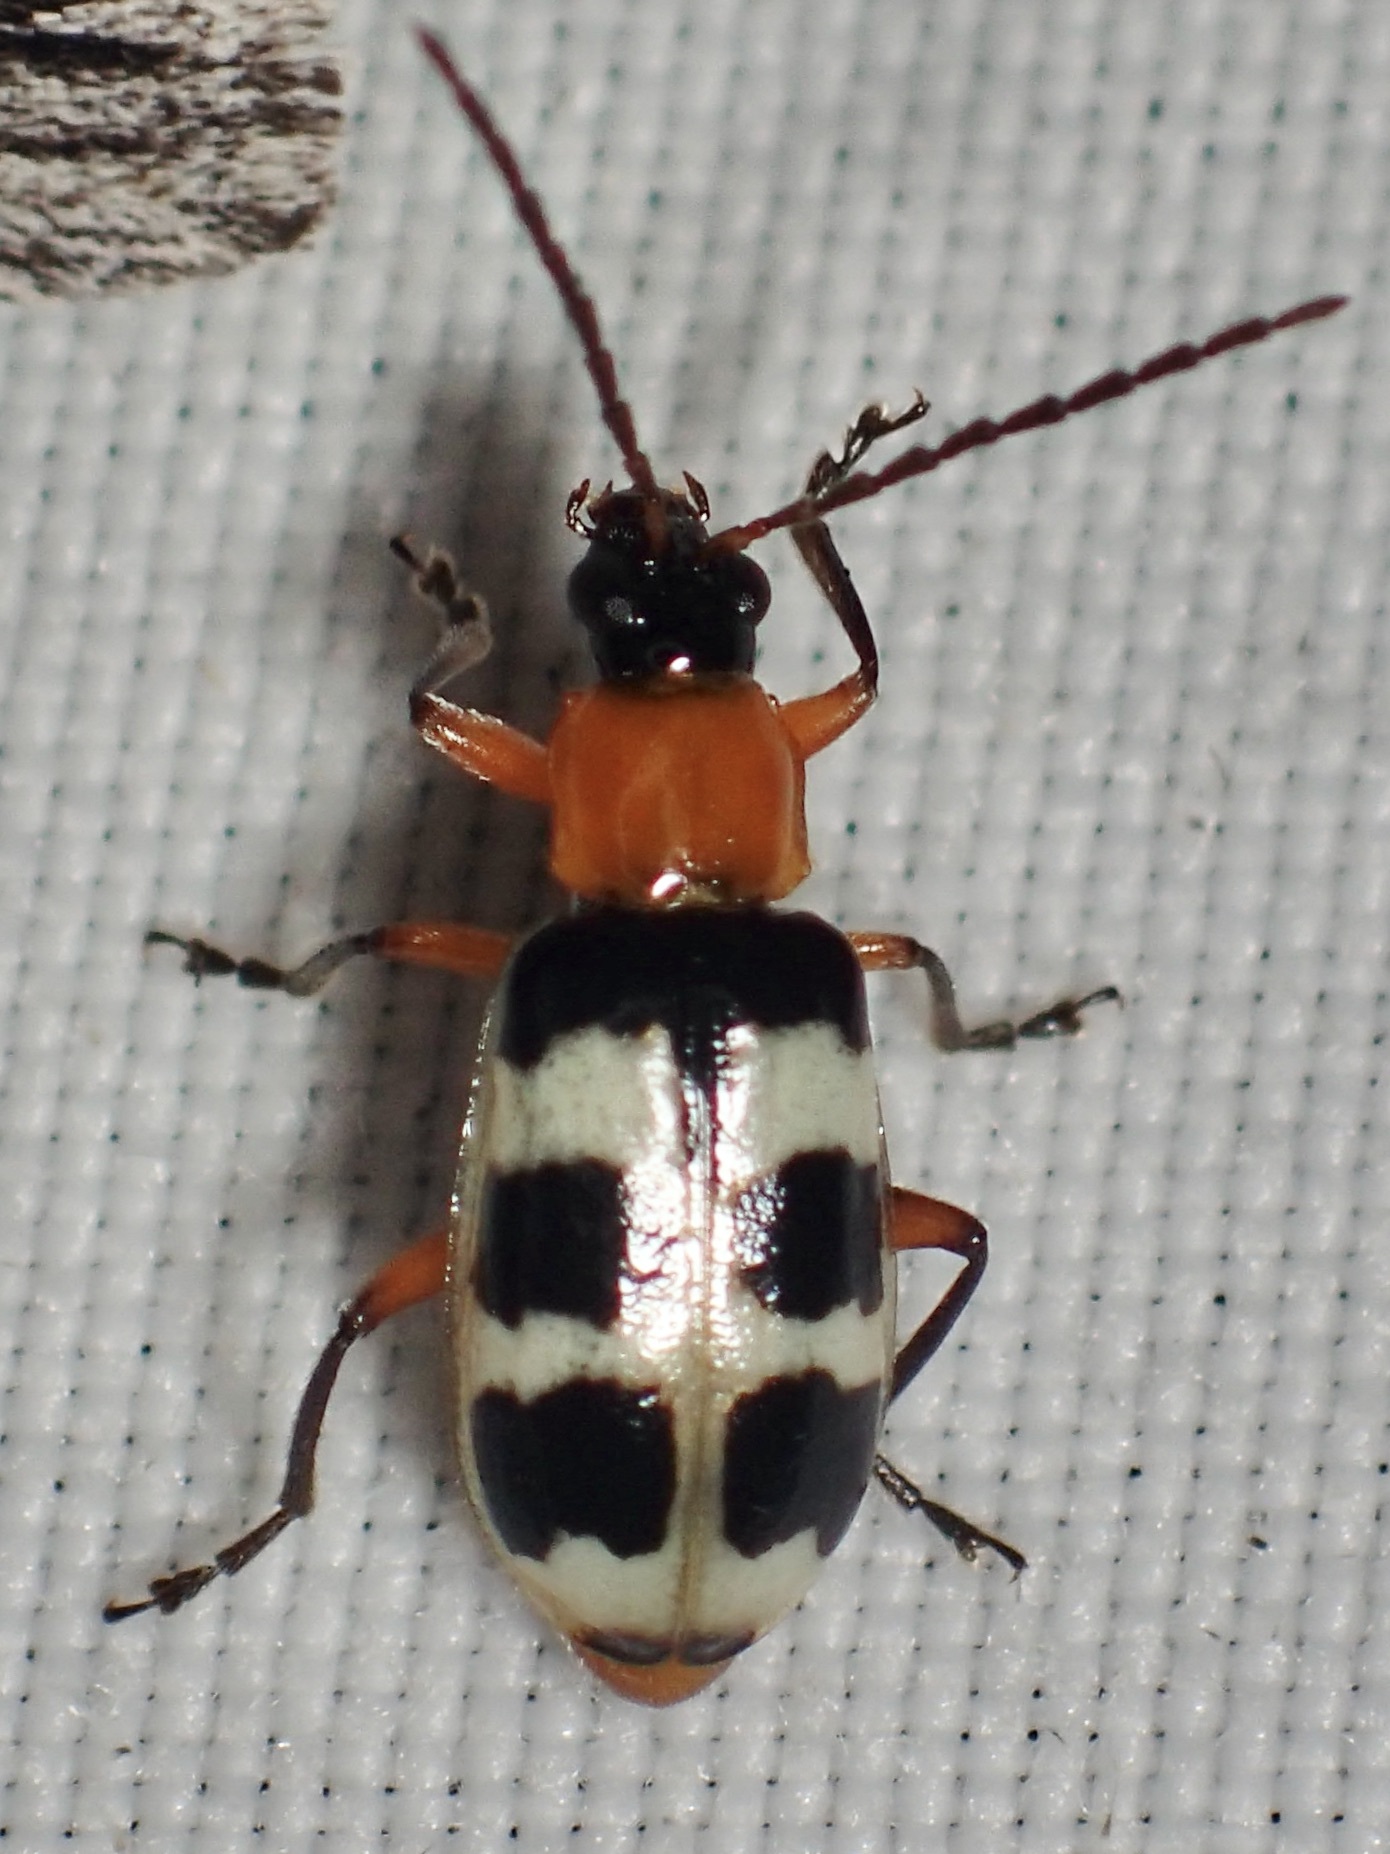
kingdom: Animalia
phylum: Arthropoda
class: Insecta
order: Coleoptera
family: Chrysomelidae
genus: Paranapiacaba
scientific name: Paranapiacaba tricincta
